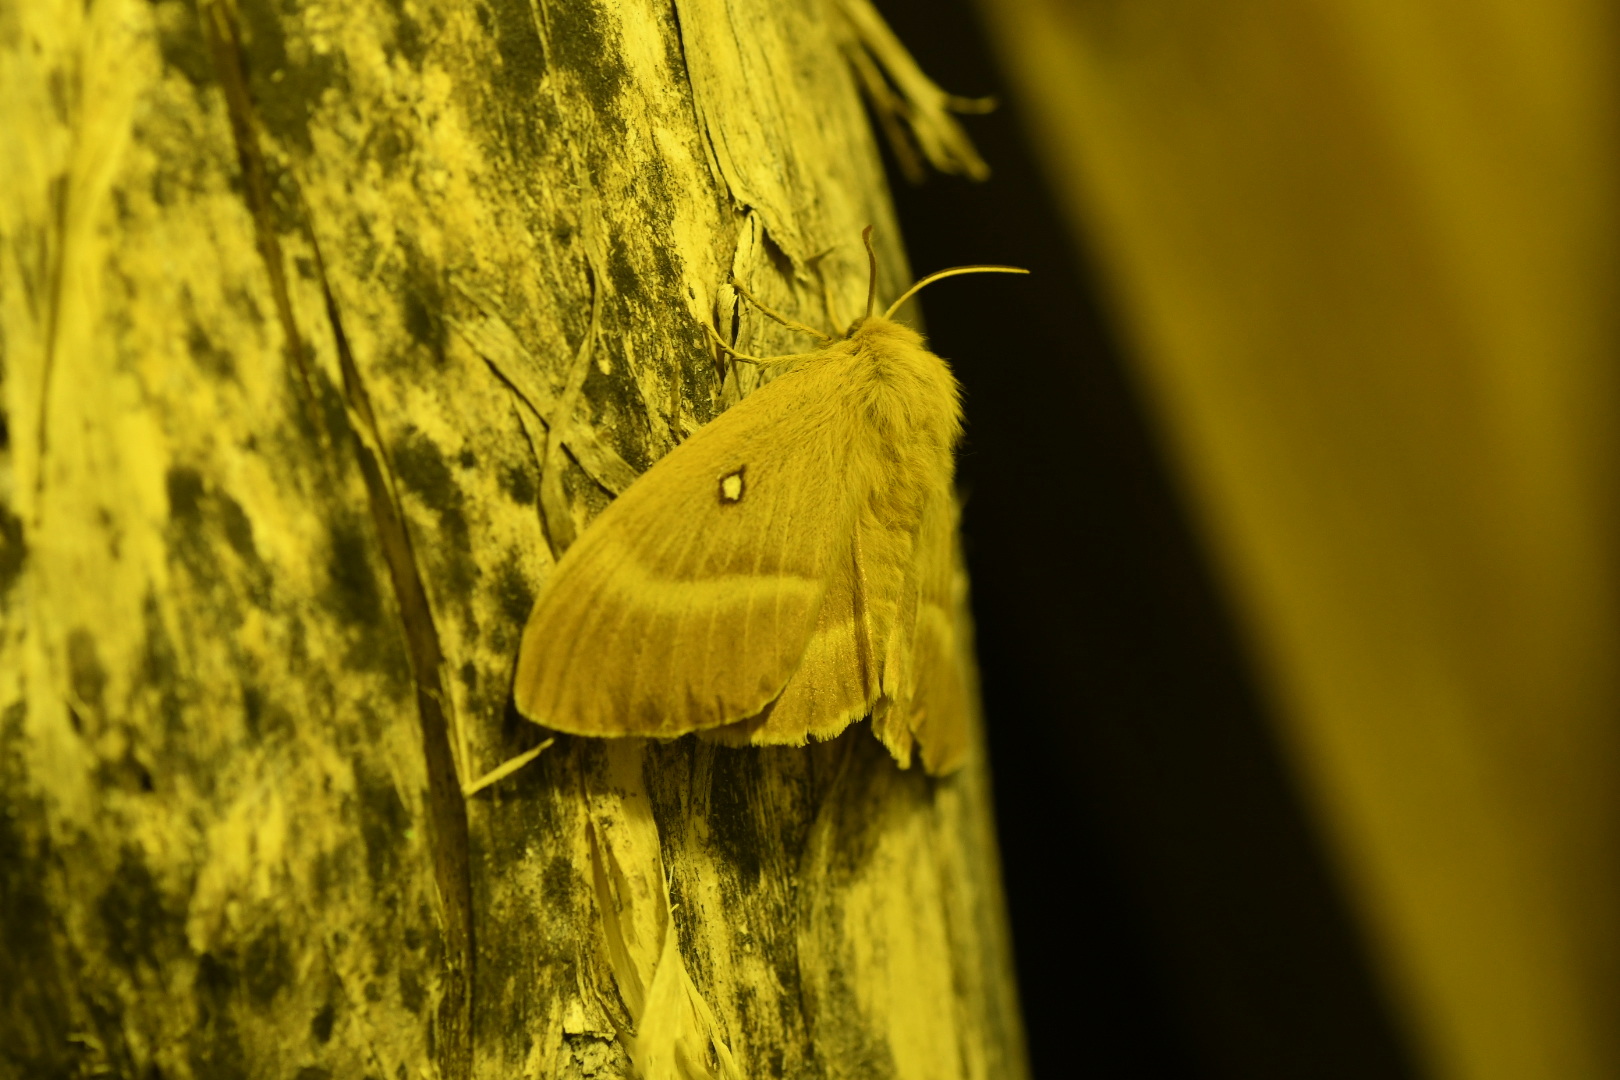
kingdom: Animalia
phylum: Arthropoda
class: Insecta
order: Lepidoptera
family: Lasiocampidae
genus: Lasiocampa
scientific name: Lasiocampa quercus
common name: Oak eggar
